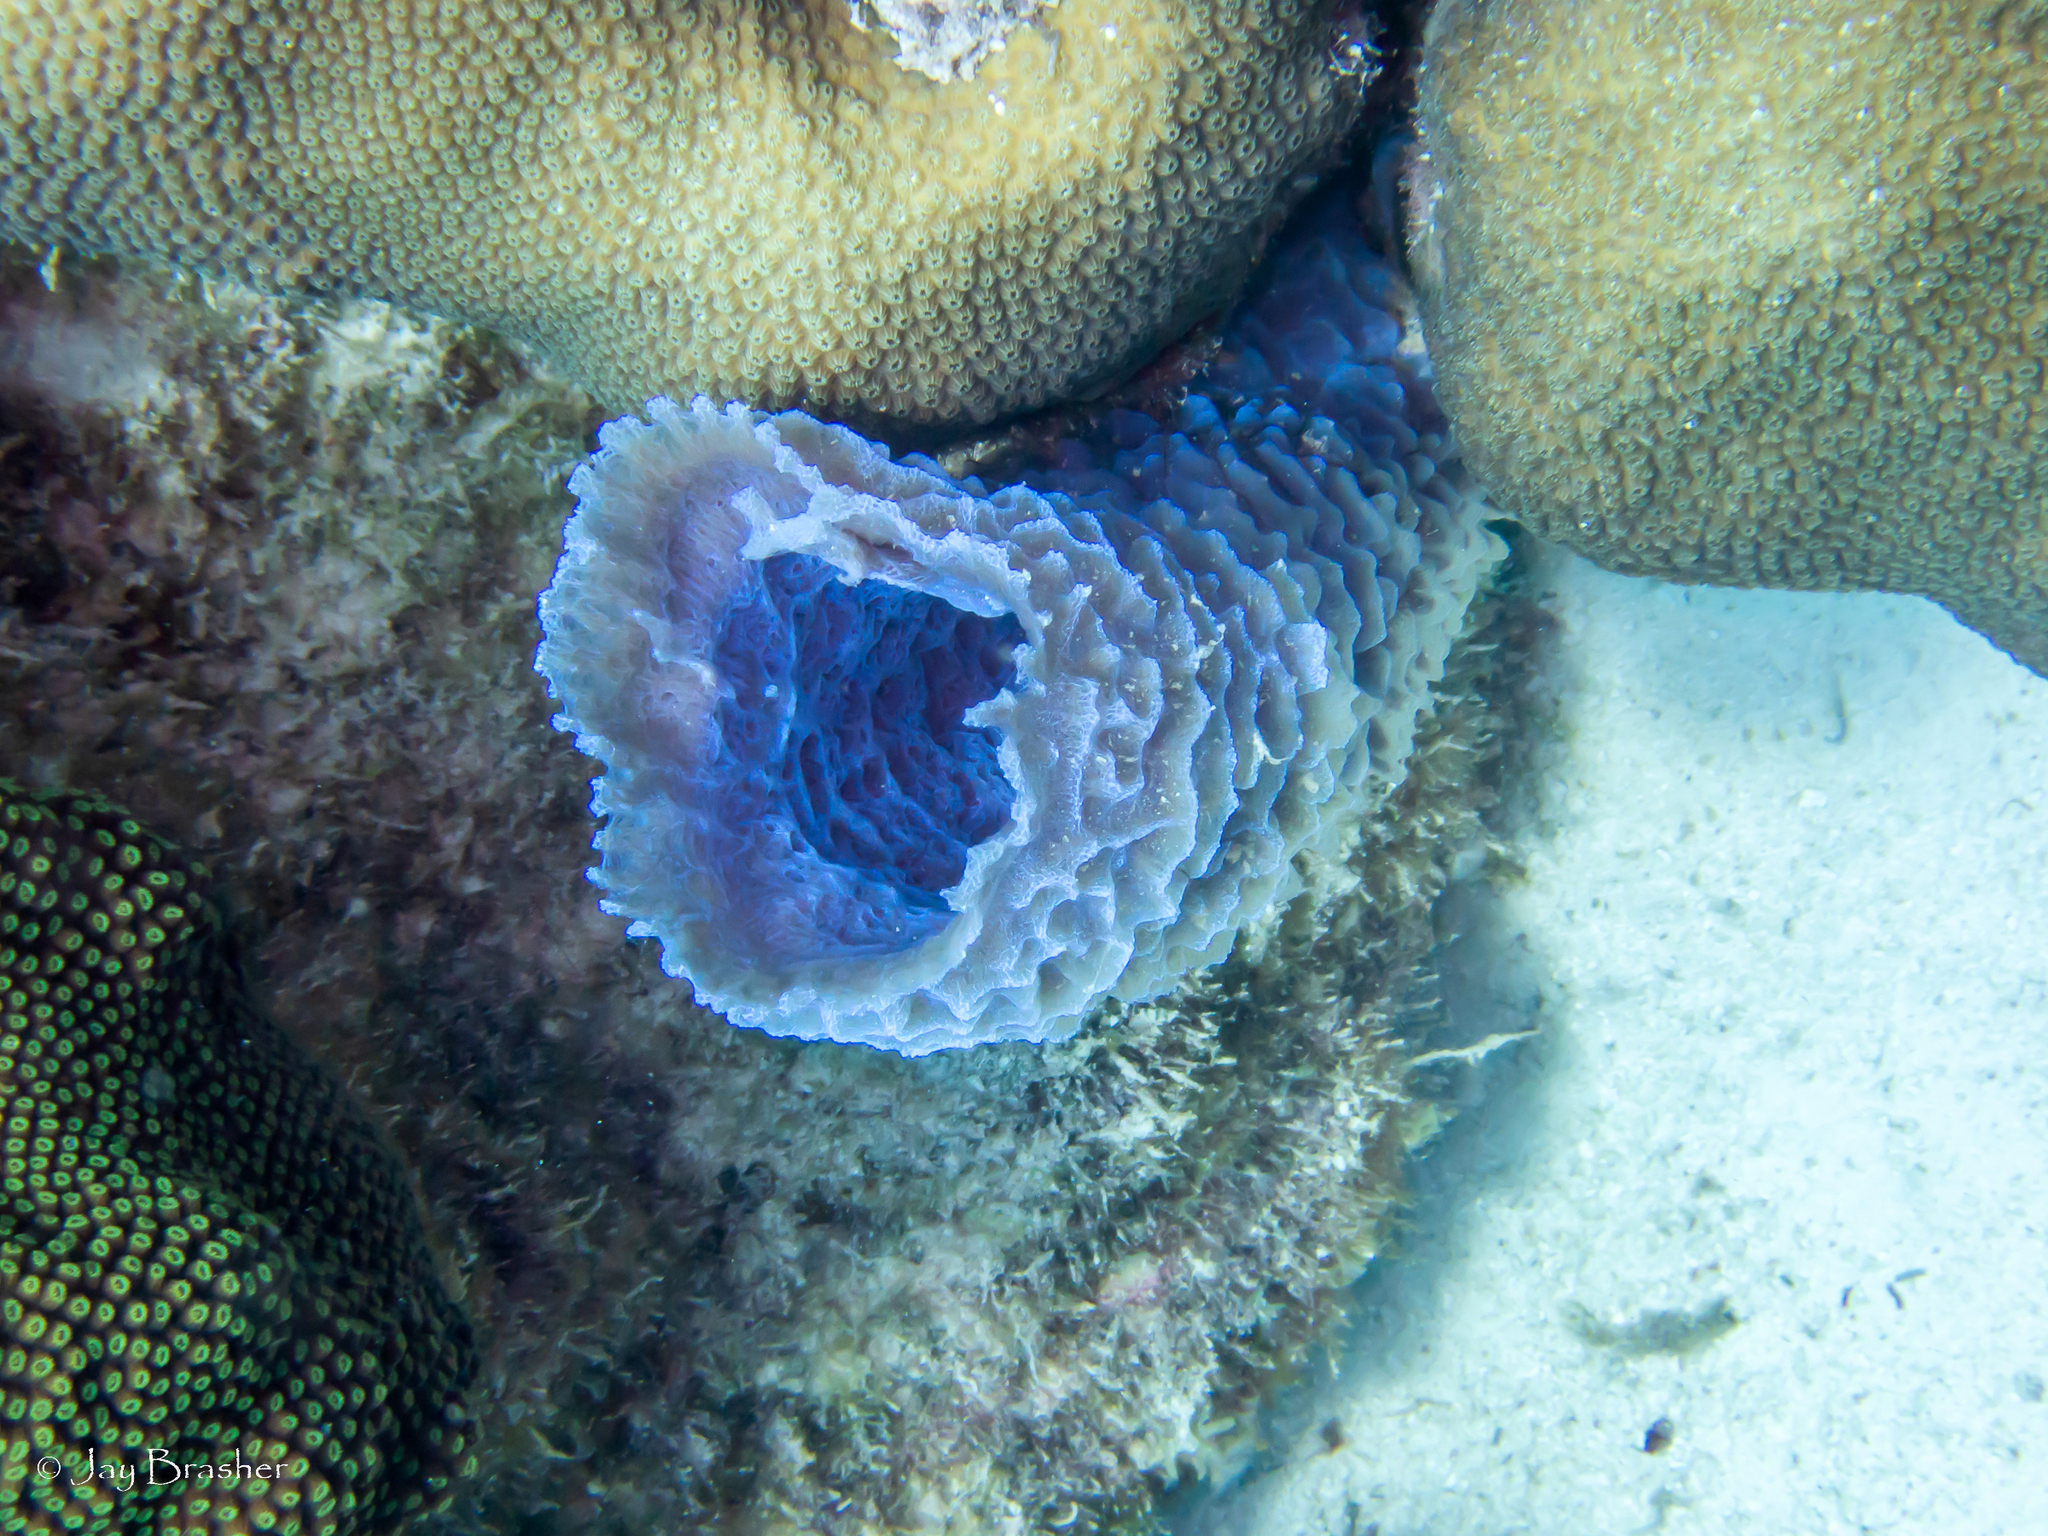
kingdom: Animalia
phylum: Porifera
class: Demospongiae
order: Haplosclerida
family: Callyspongiidae
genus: Callyspongia
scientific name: Callyspongia plicifera
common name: Azure vase sponge
